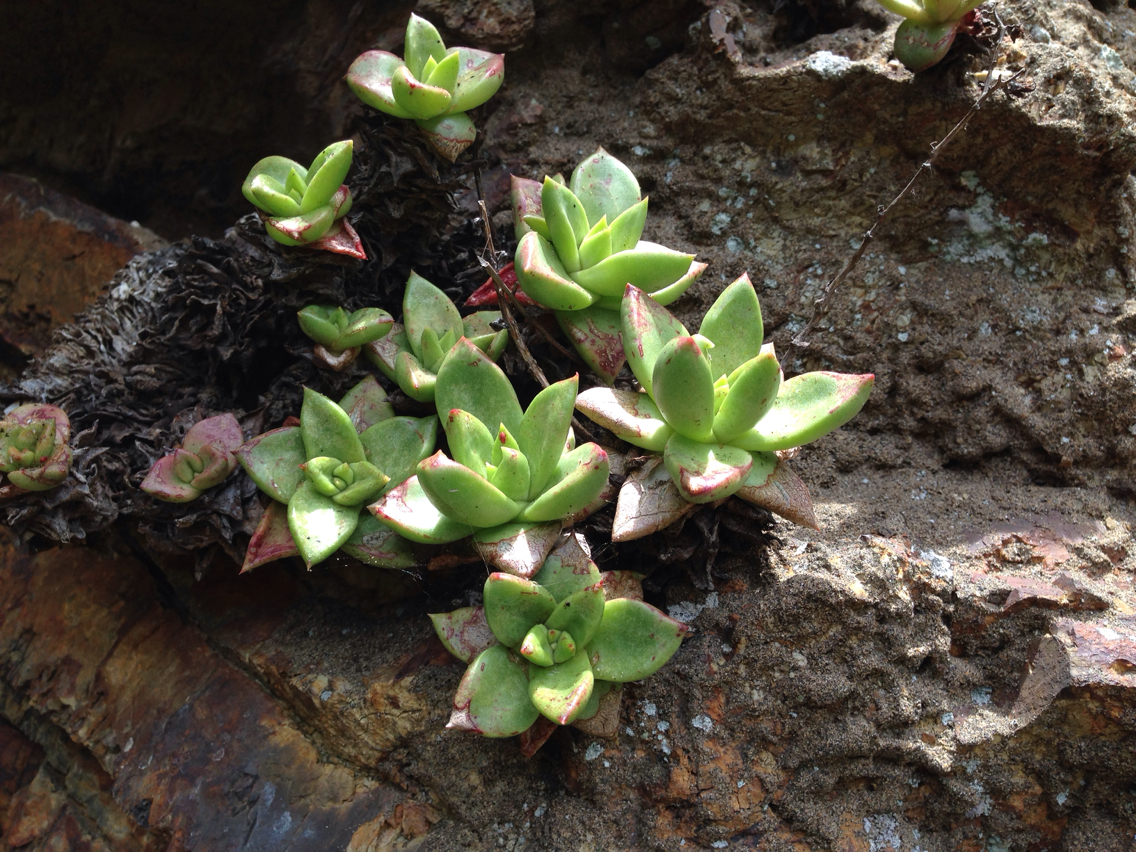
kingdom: Plantae
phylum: Tracheophyta
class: Magnoliopsida
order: Saxifragales
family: Crassulaceae
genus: Dudleya
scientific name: Dudleya farinosa
